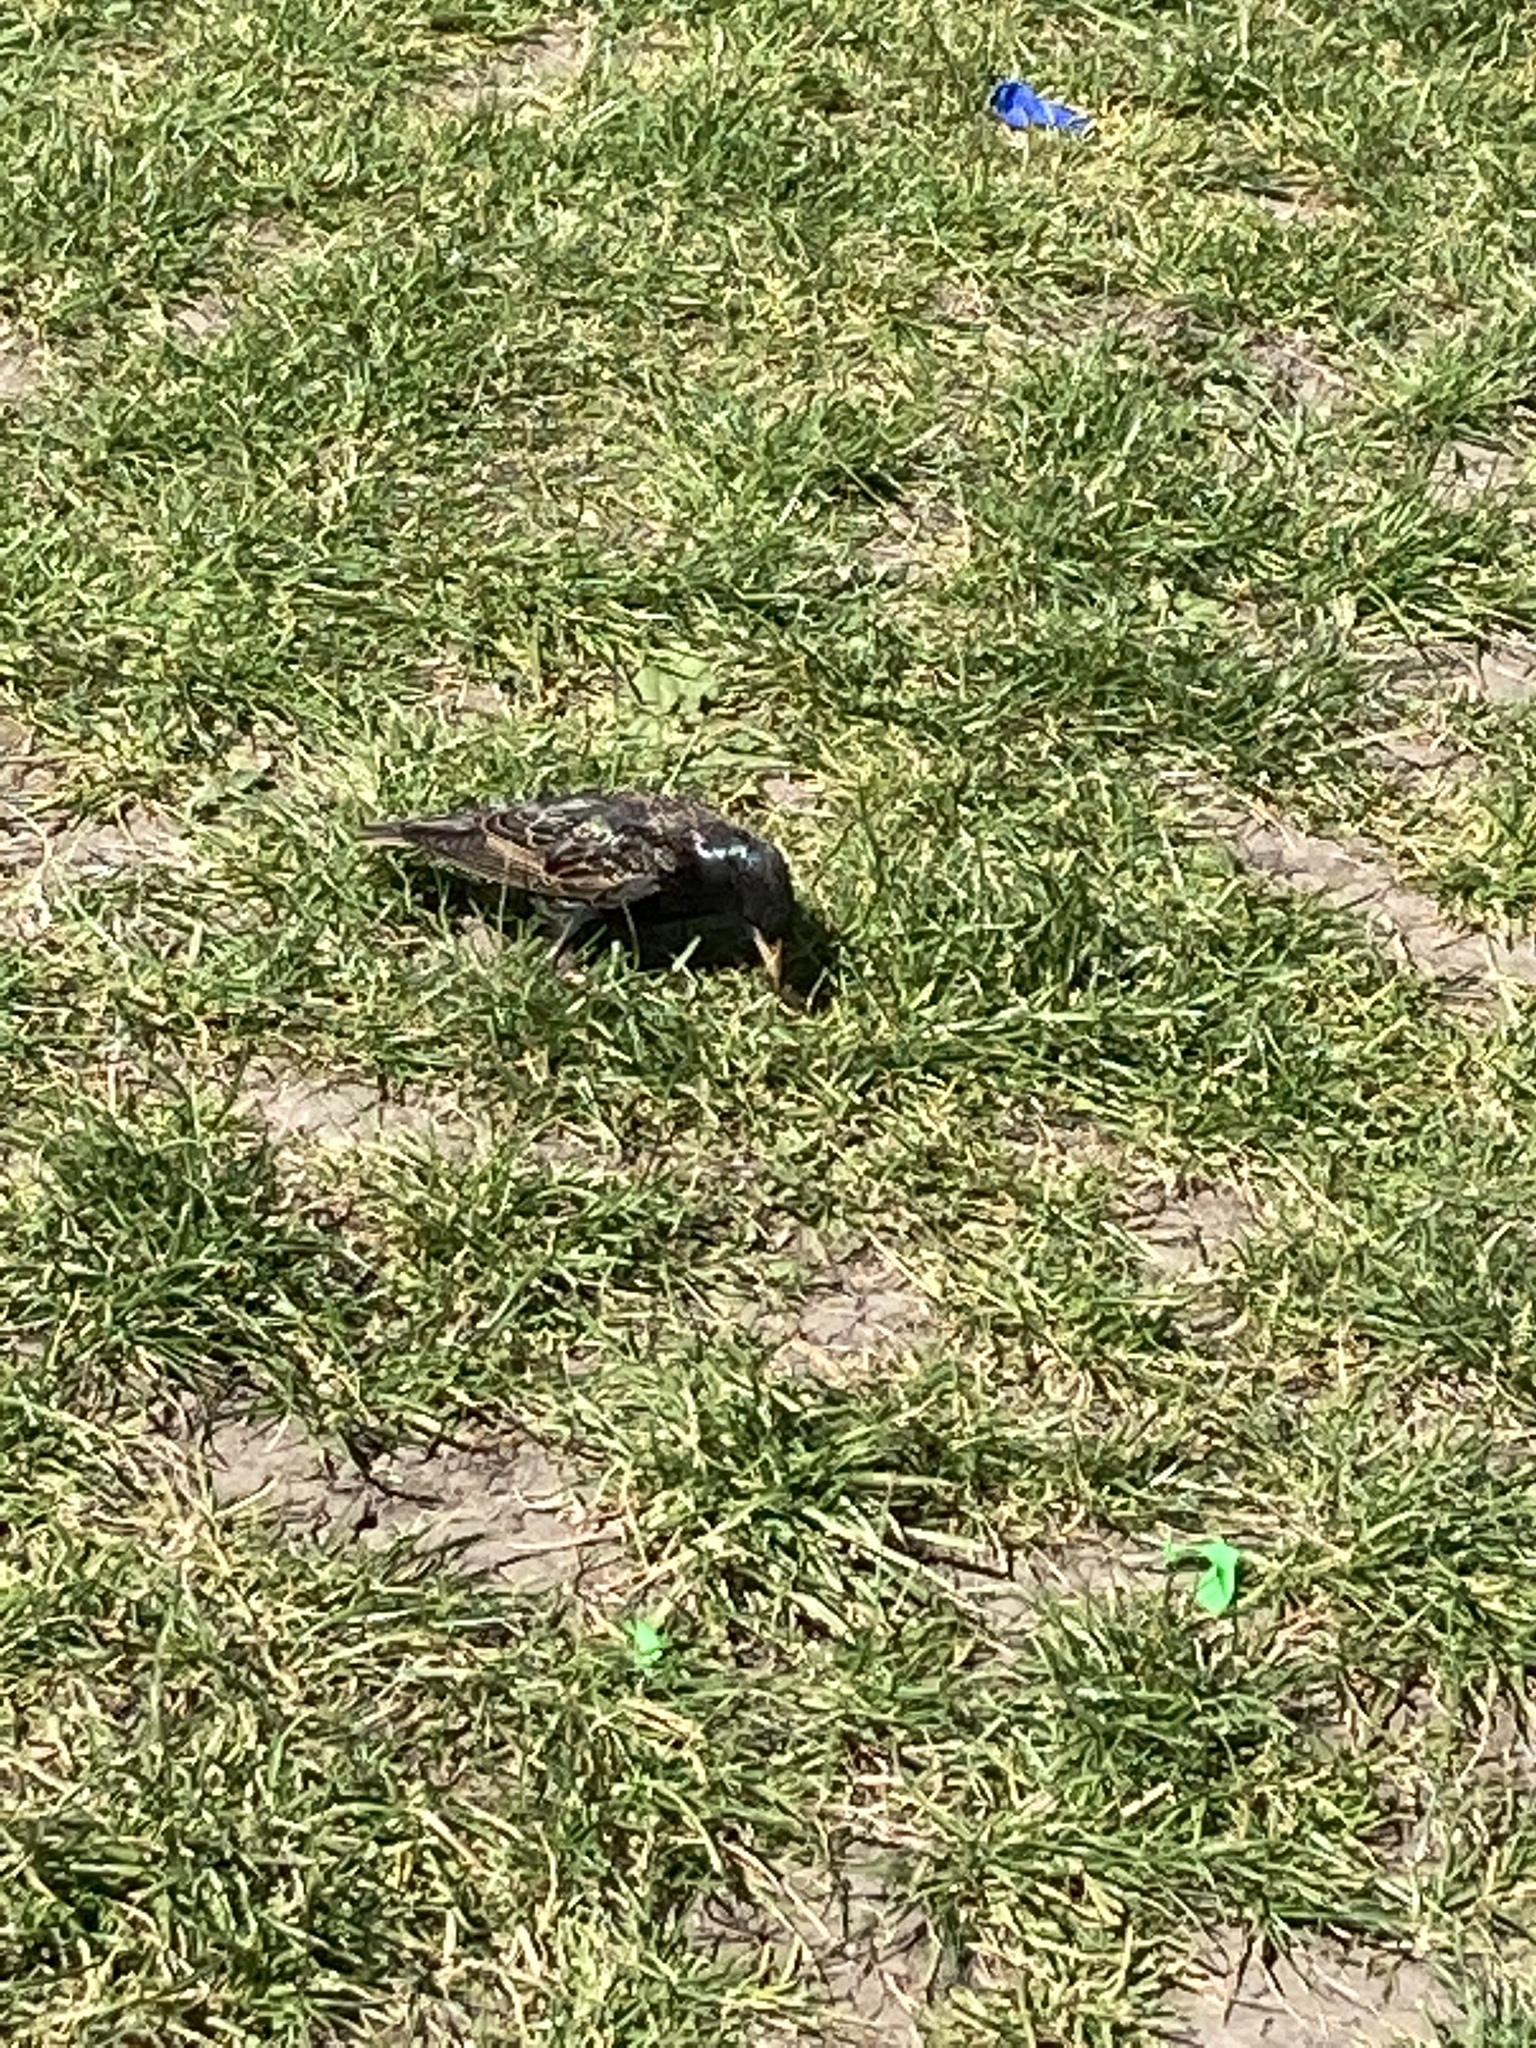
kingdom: Animalia
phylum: Chordata
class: Aves
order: Passeriformes
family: Sturnidae
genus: Sturnus
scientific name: Sturnus vulgaris
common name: Common starling
